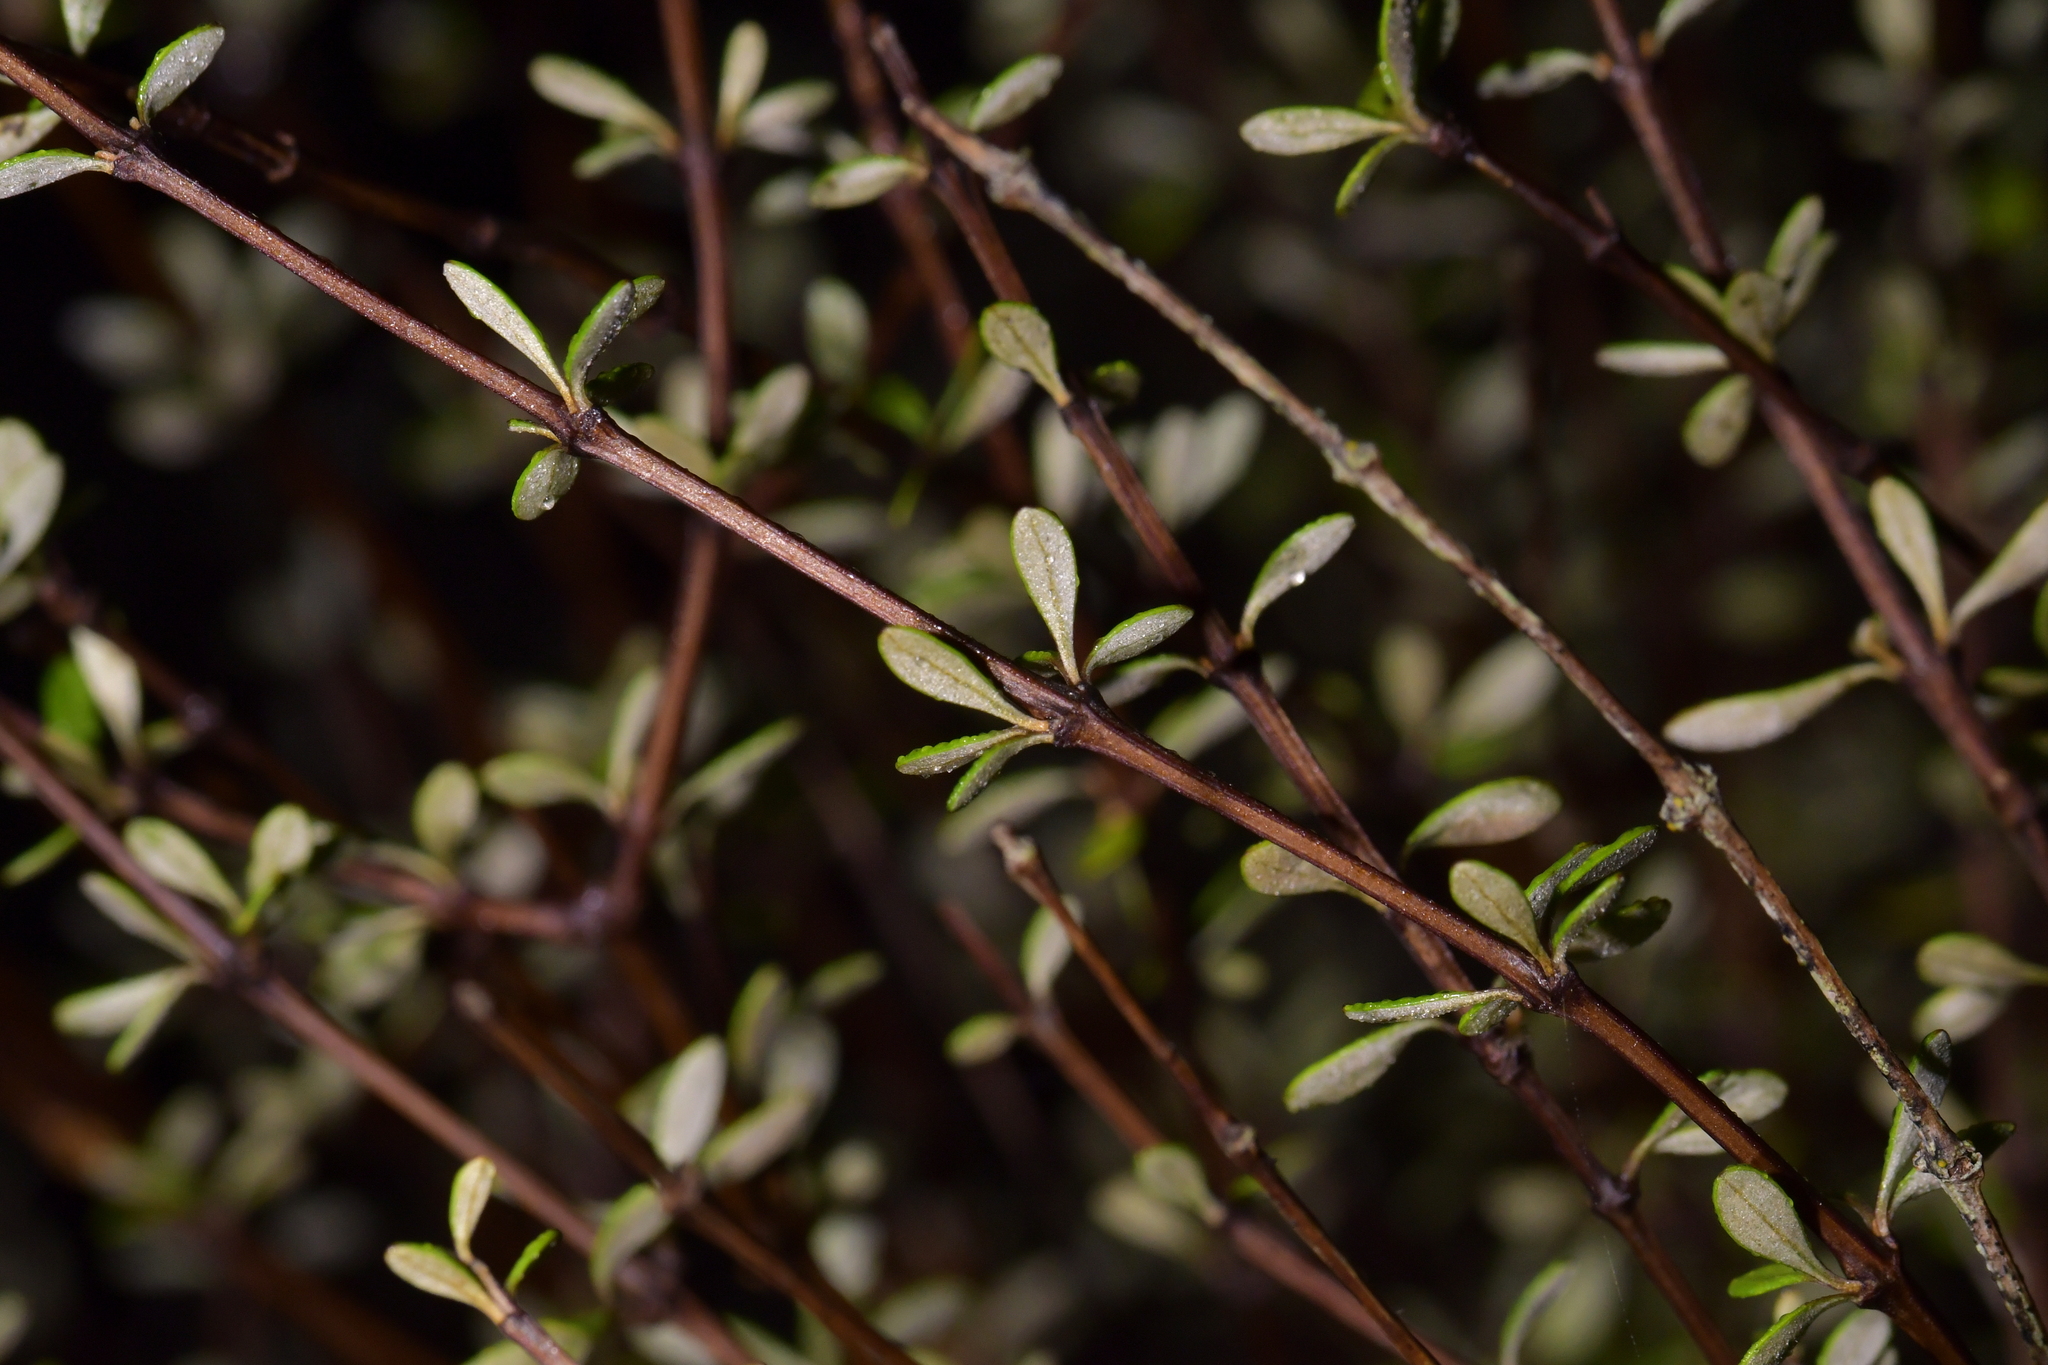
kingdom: Plantae
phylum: Tracheophyta
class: Magnoliopsida
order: Asterales
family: Asteraceae
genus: Olearia
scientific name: Olearia virgata
